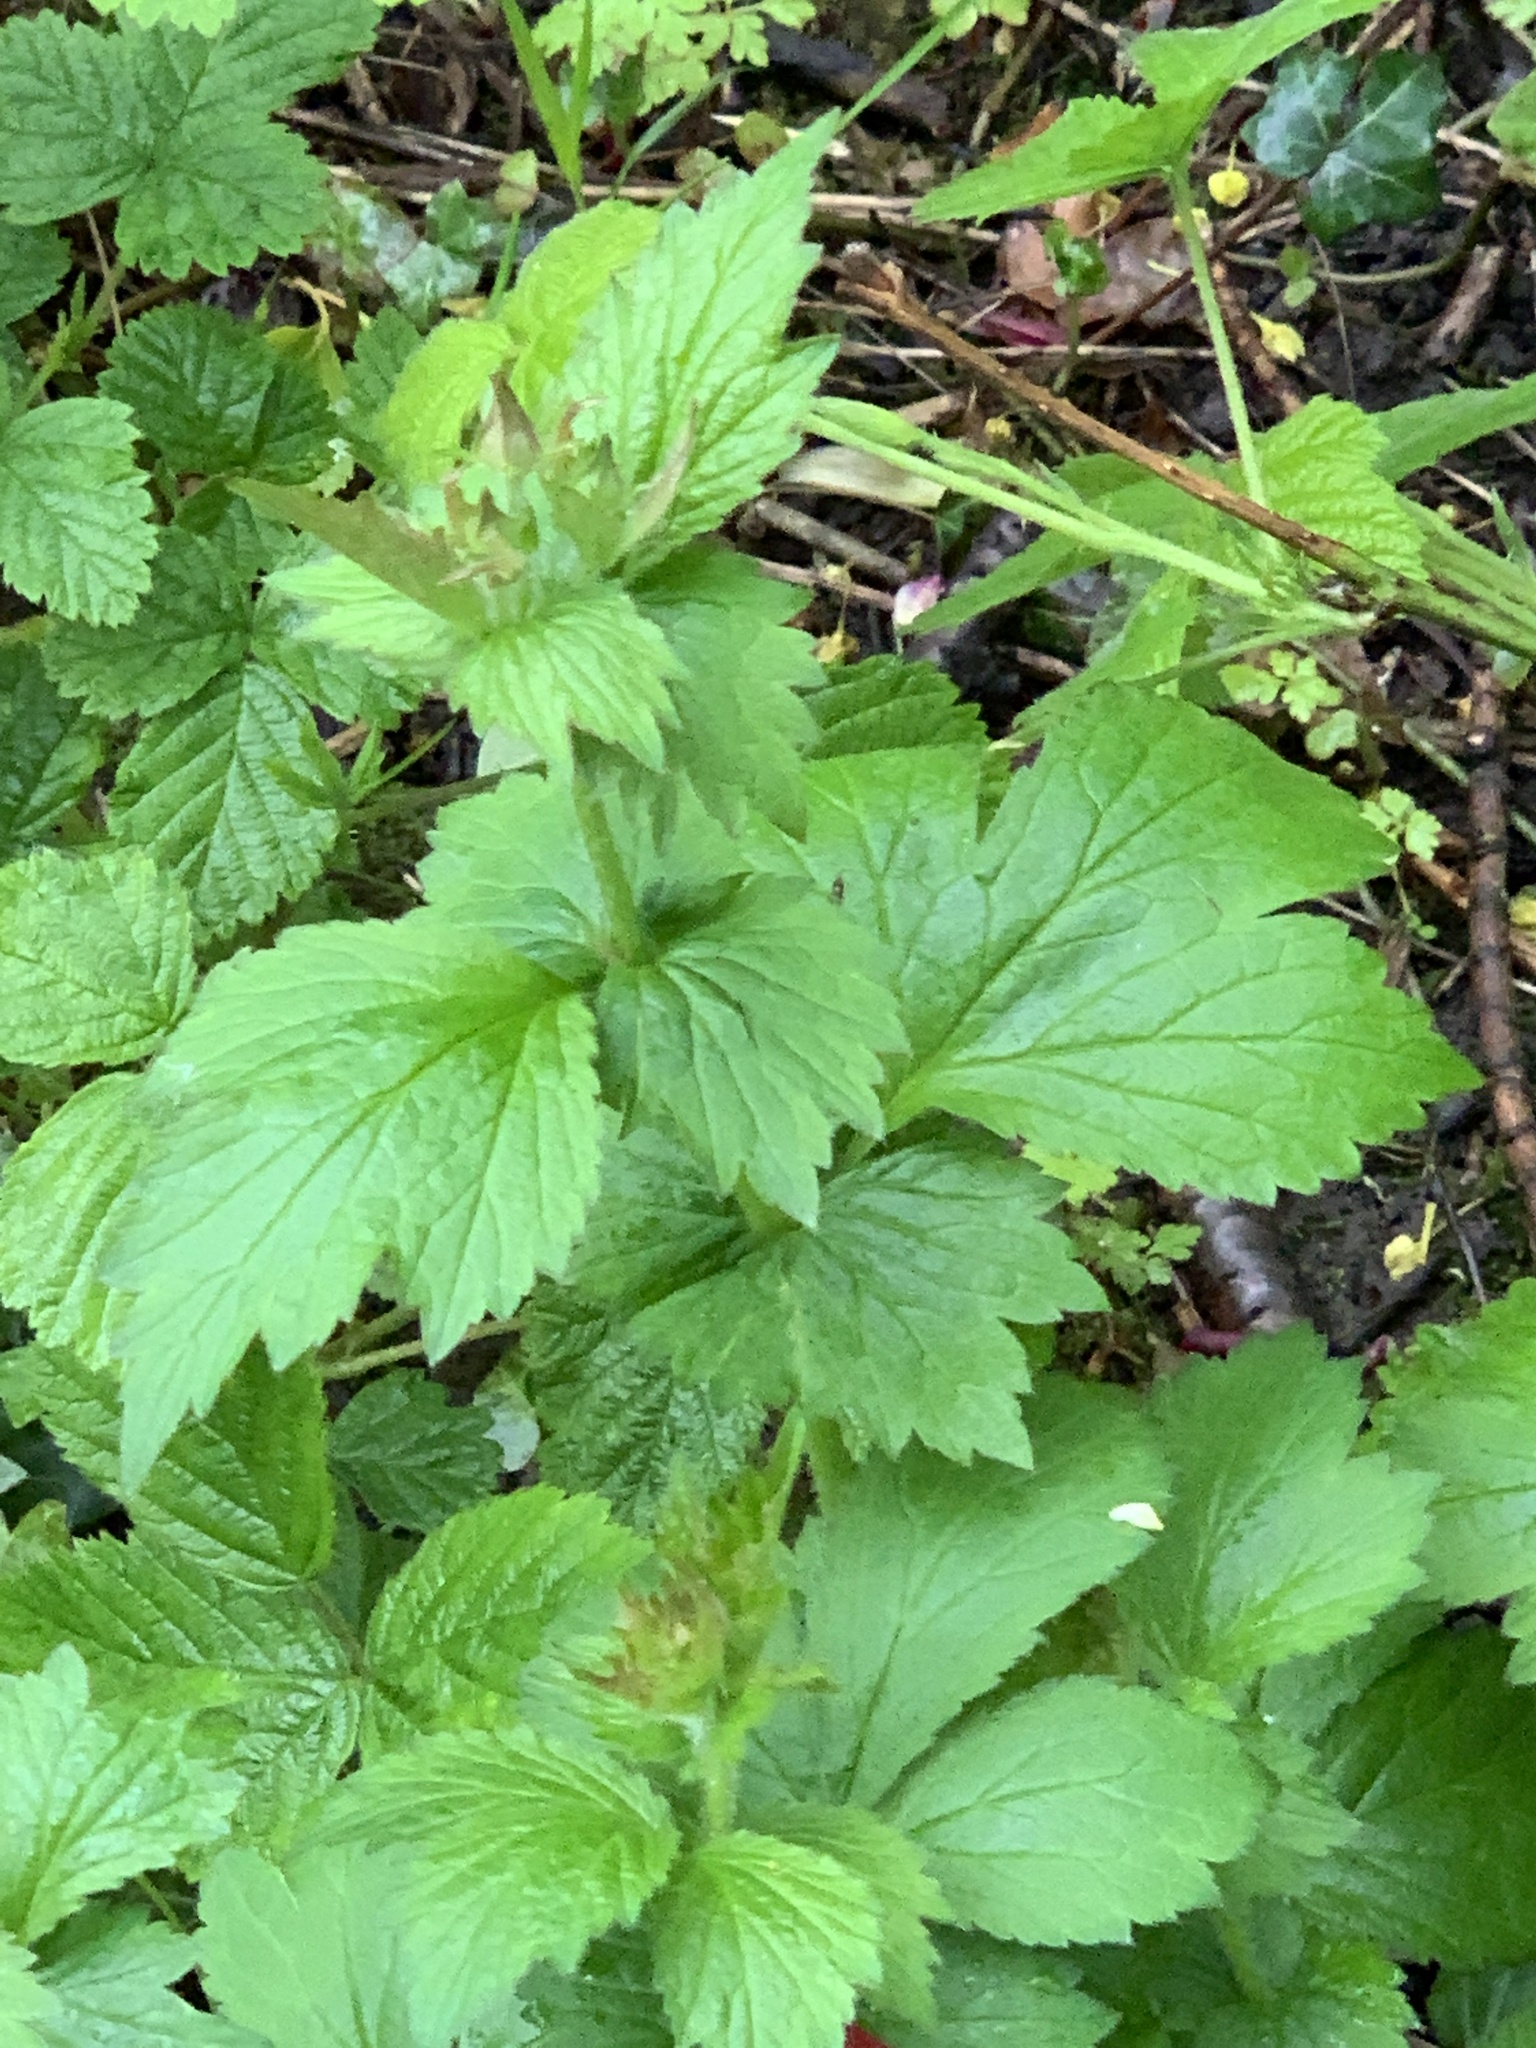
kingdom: Plantae
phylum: Tracheophyta
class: Magnoliopsida
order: Rosales
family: Rosaceae
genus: Geum
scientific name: Geum urbanum
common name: Wood avens
